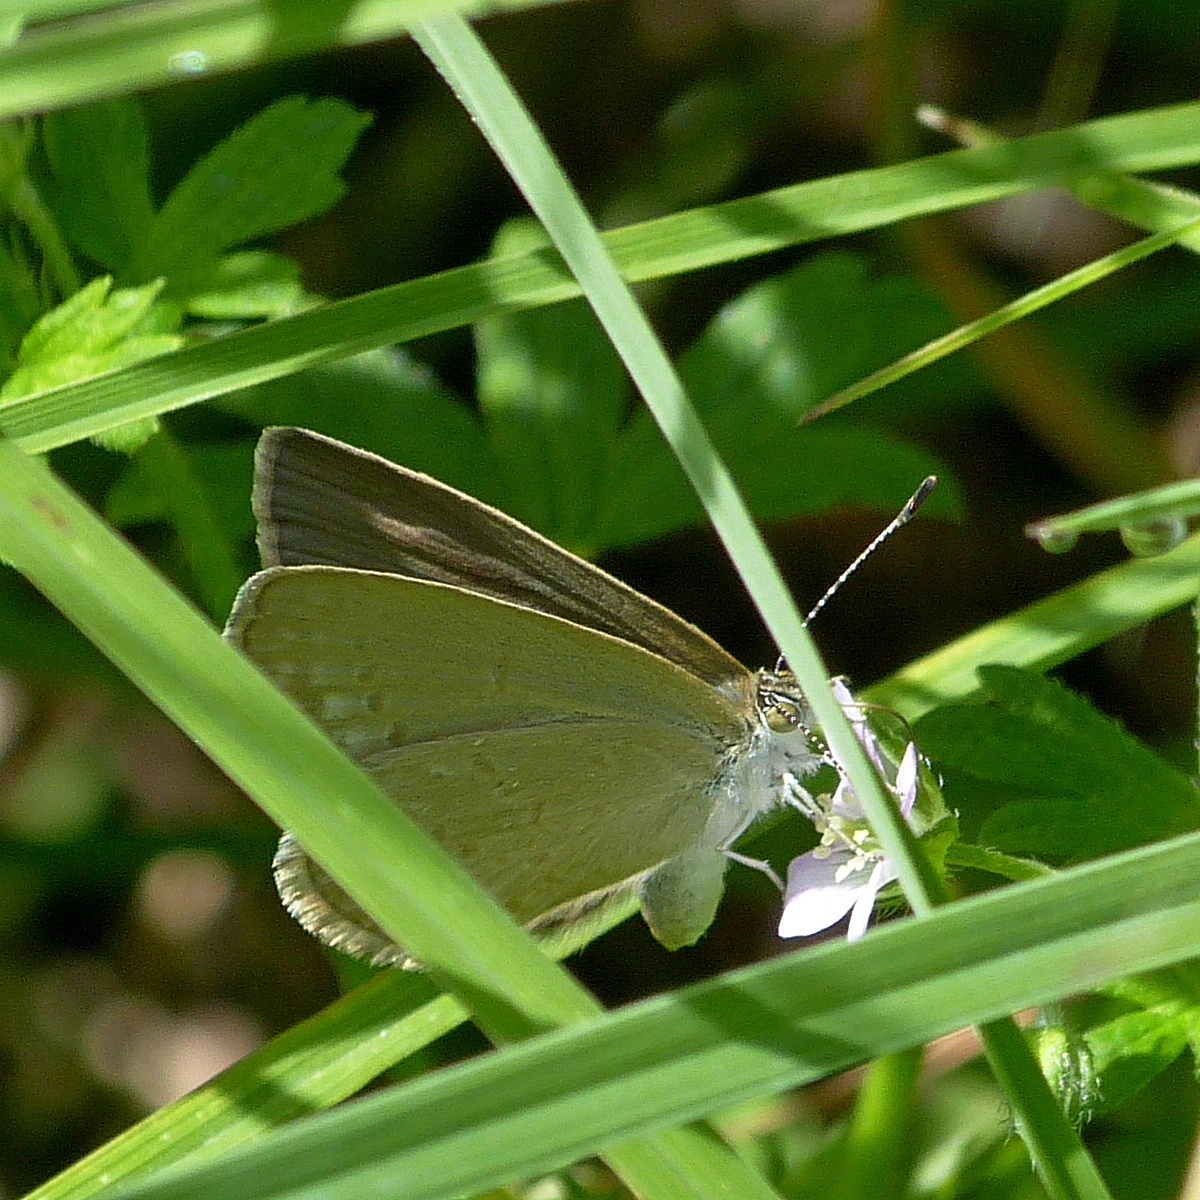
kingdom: Animalia
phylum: Arthropoda
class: Insecta
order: Lepidoptera
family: Lycaenidae
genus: Zizina
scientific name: Zizina labradus
